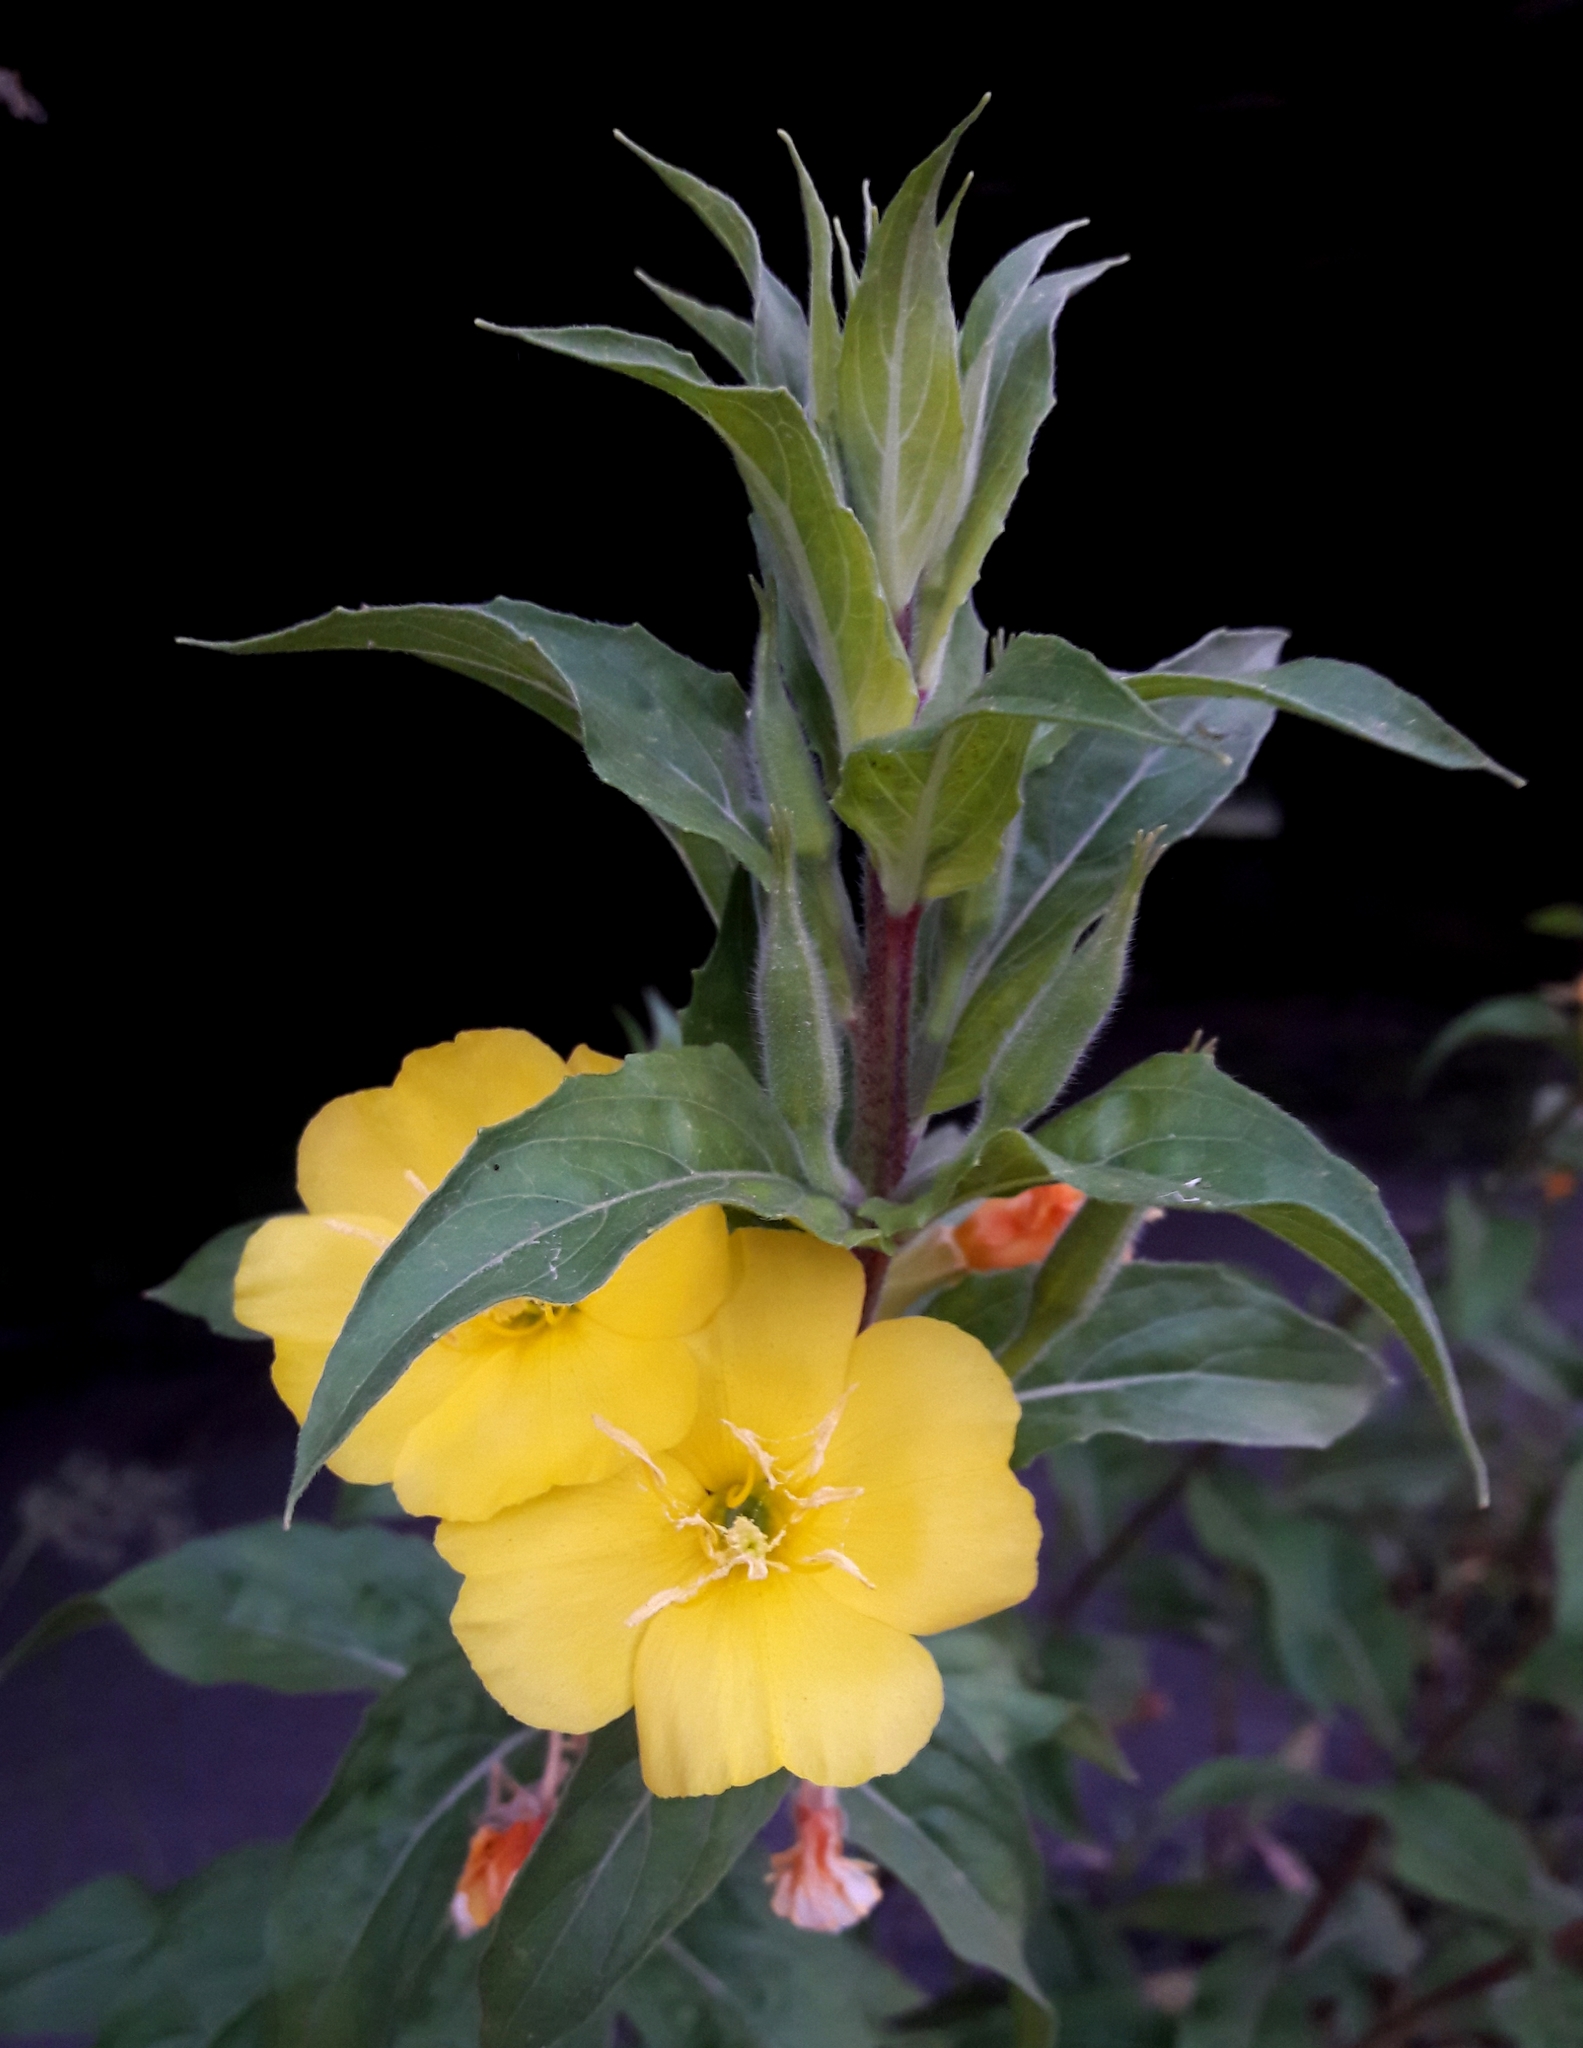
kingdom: Plantae
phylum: Tracheophyta
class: Magnoliopsida
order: Myrtales
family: Onagraceae
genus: Oenothera
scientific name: Oenothera rubricaulis
